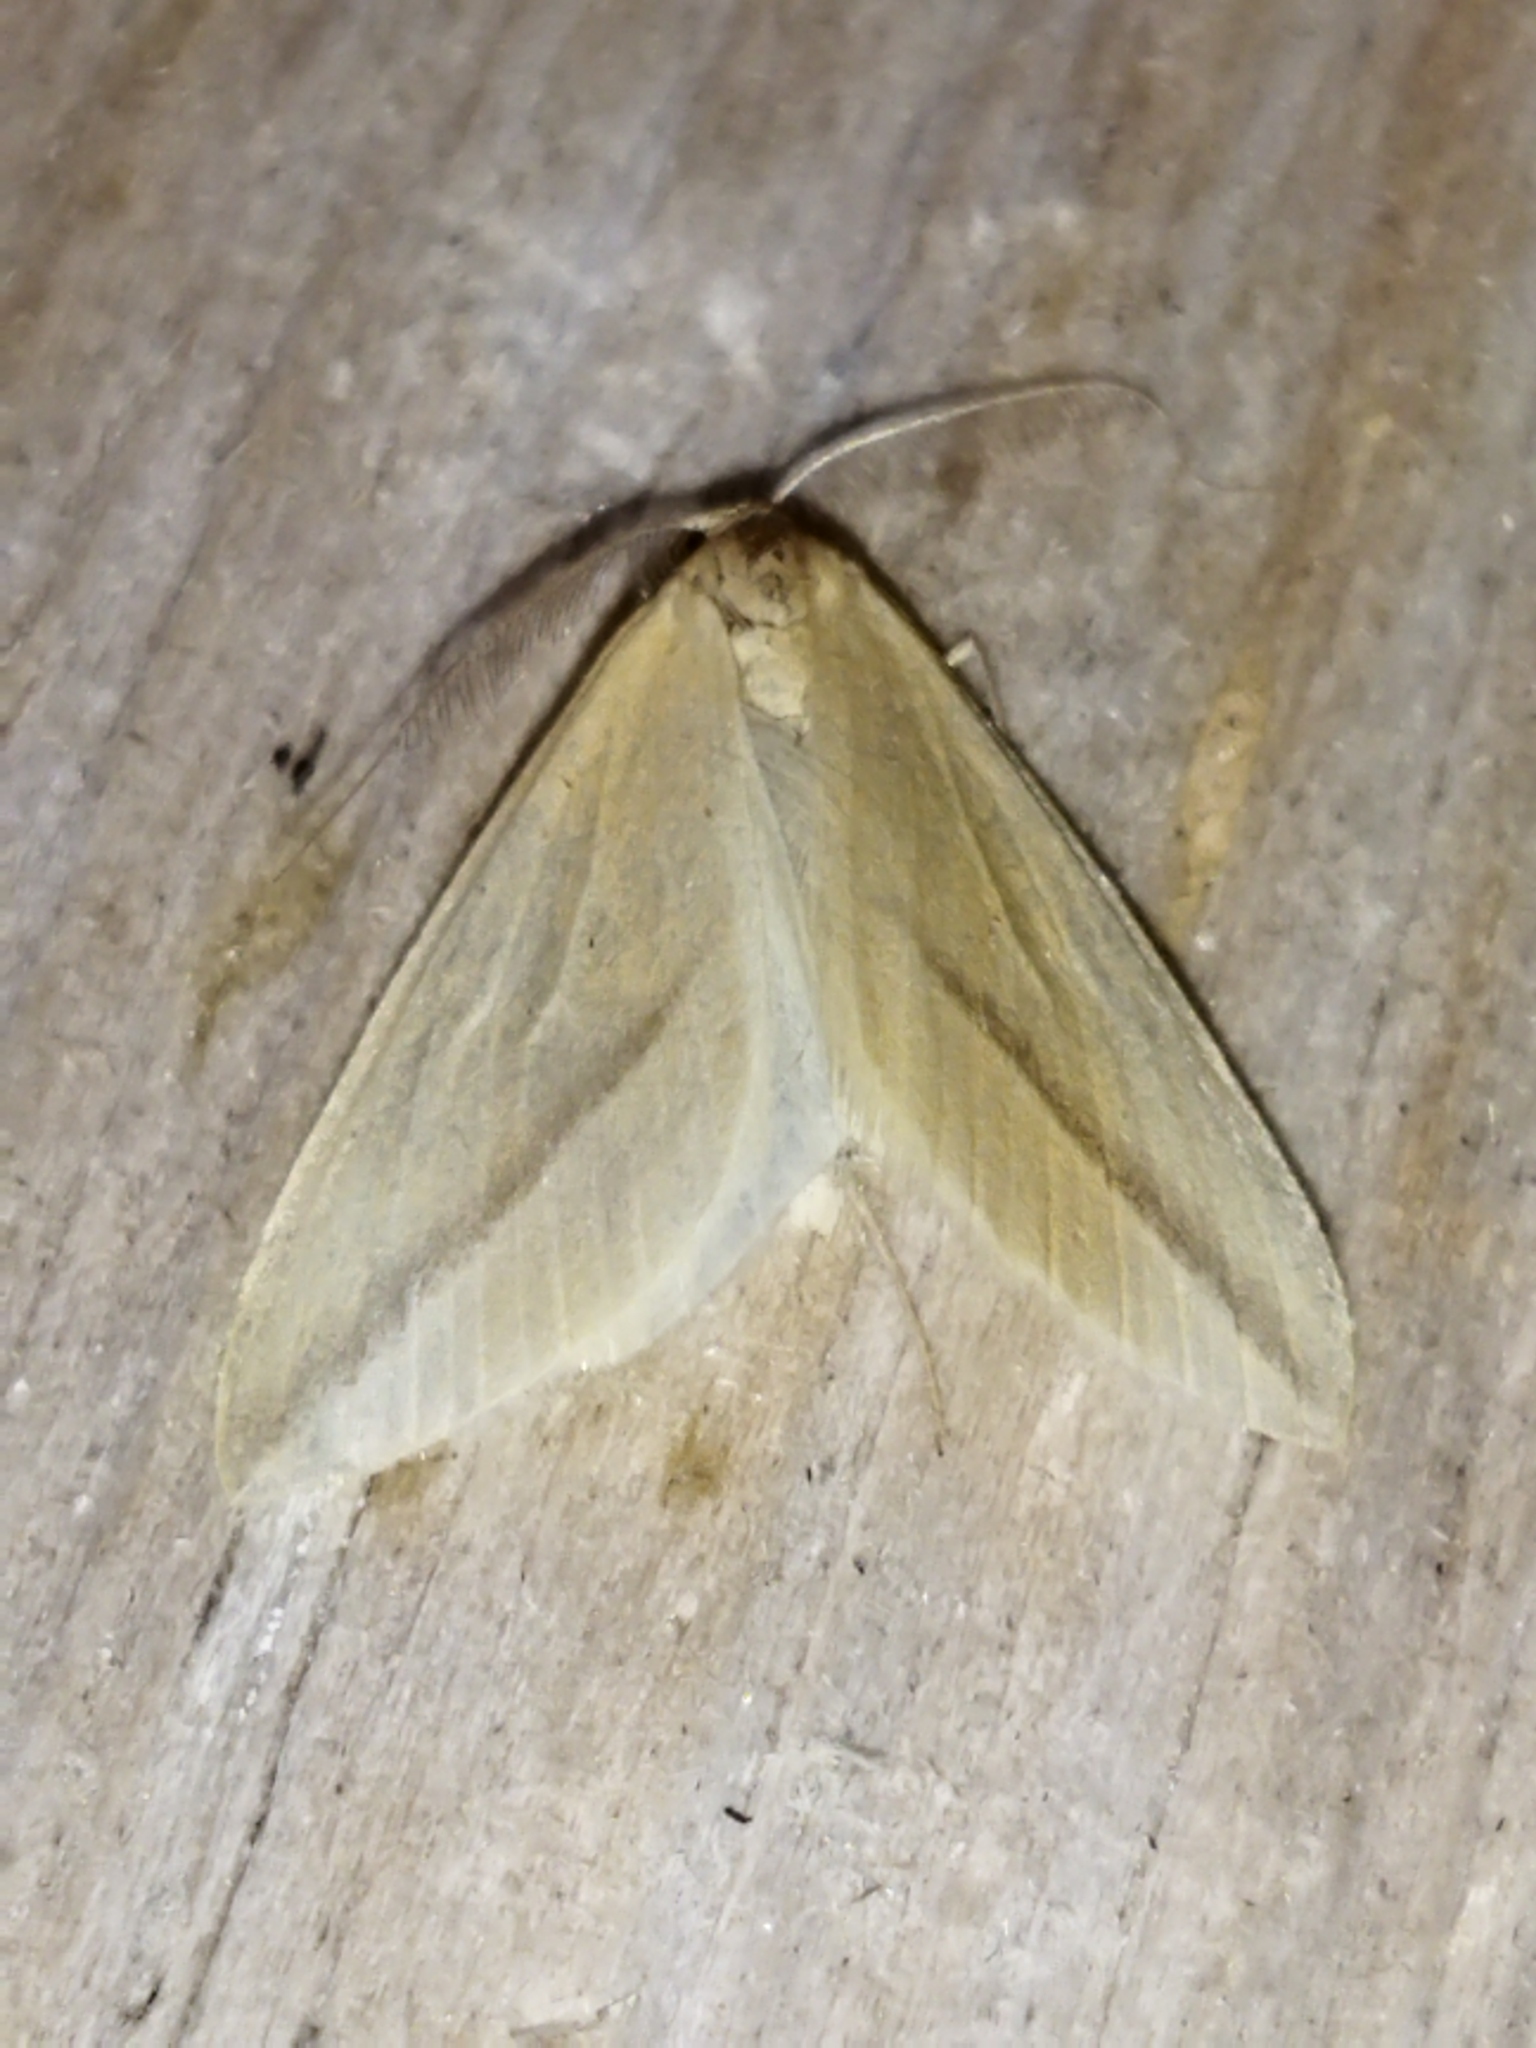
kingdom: Animalia
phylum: Arthropoda
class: Insecta
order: Lepidoptera
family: Geometridae
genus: Rhodometra
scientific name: Rhodometra sacraria
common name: Vestal
